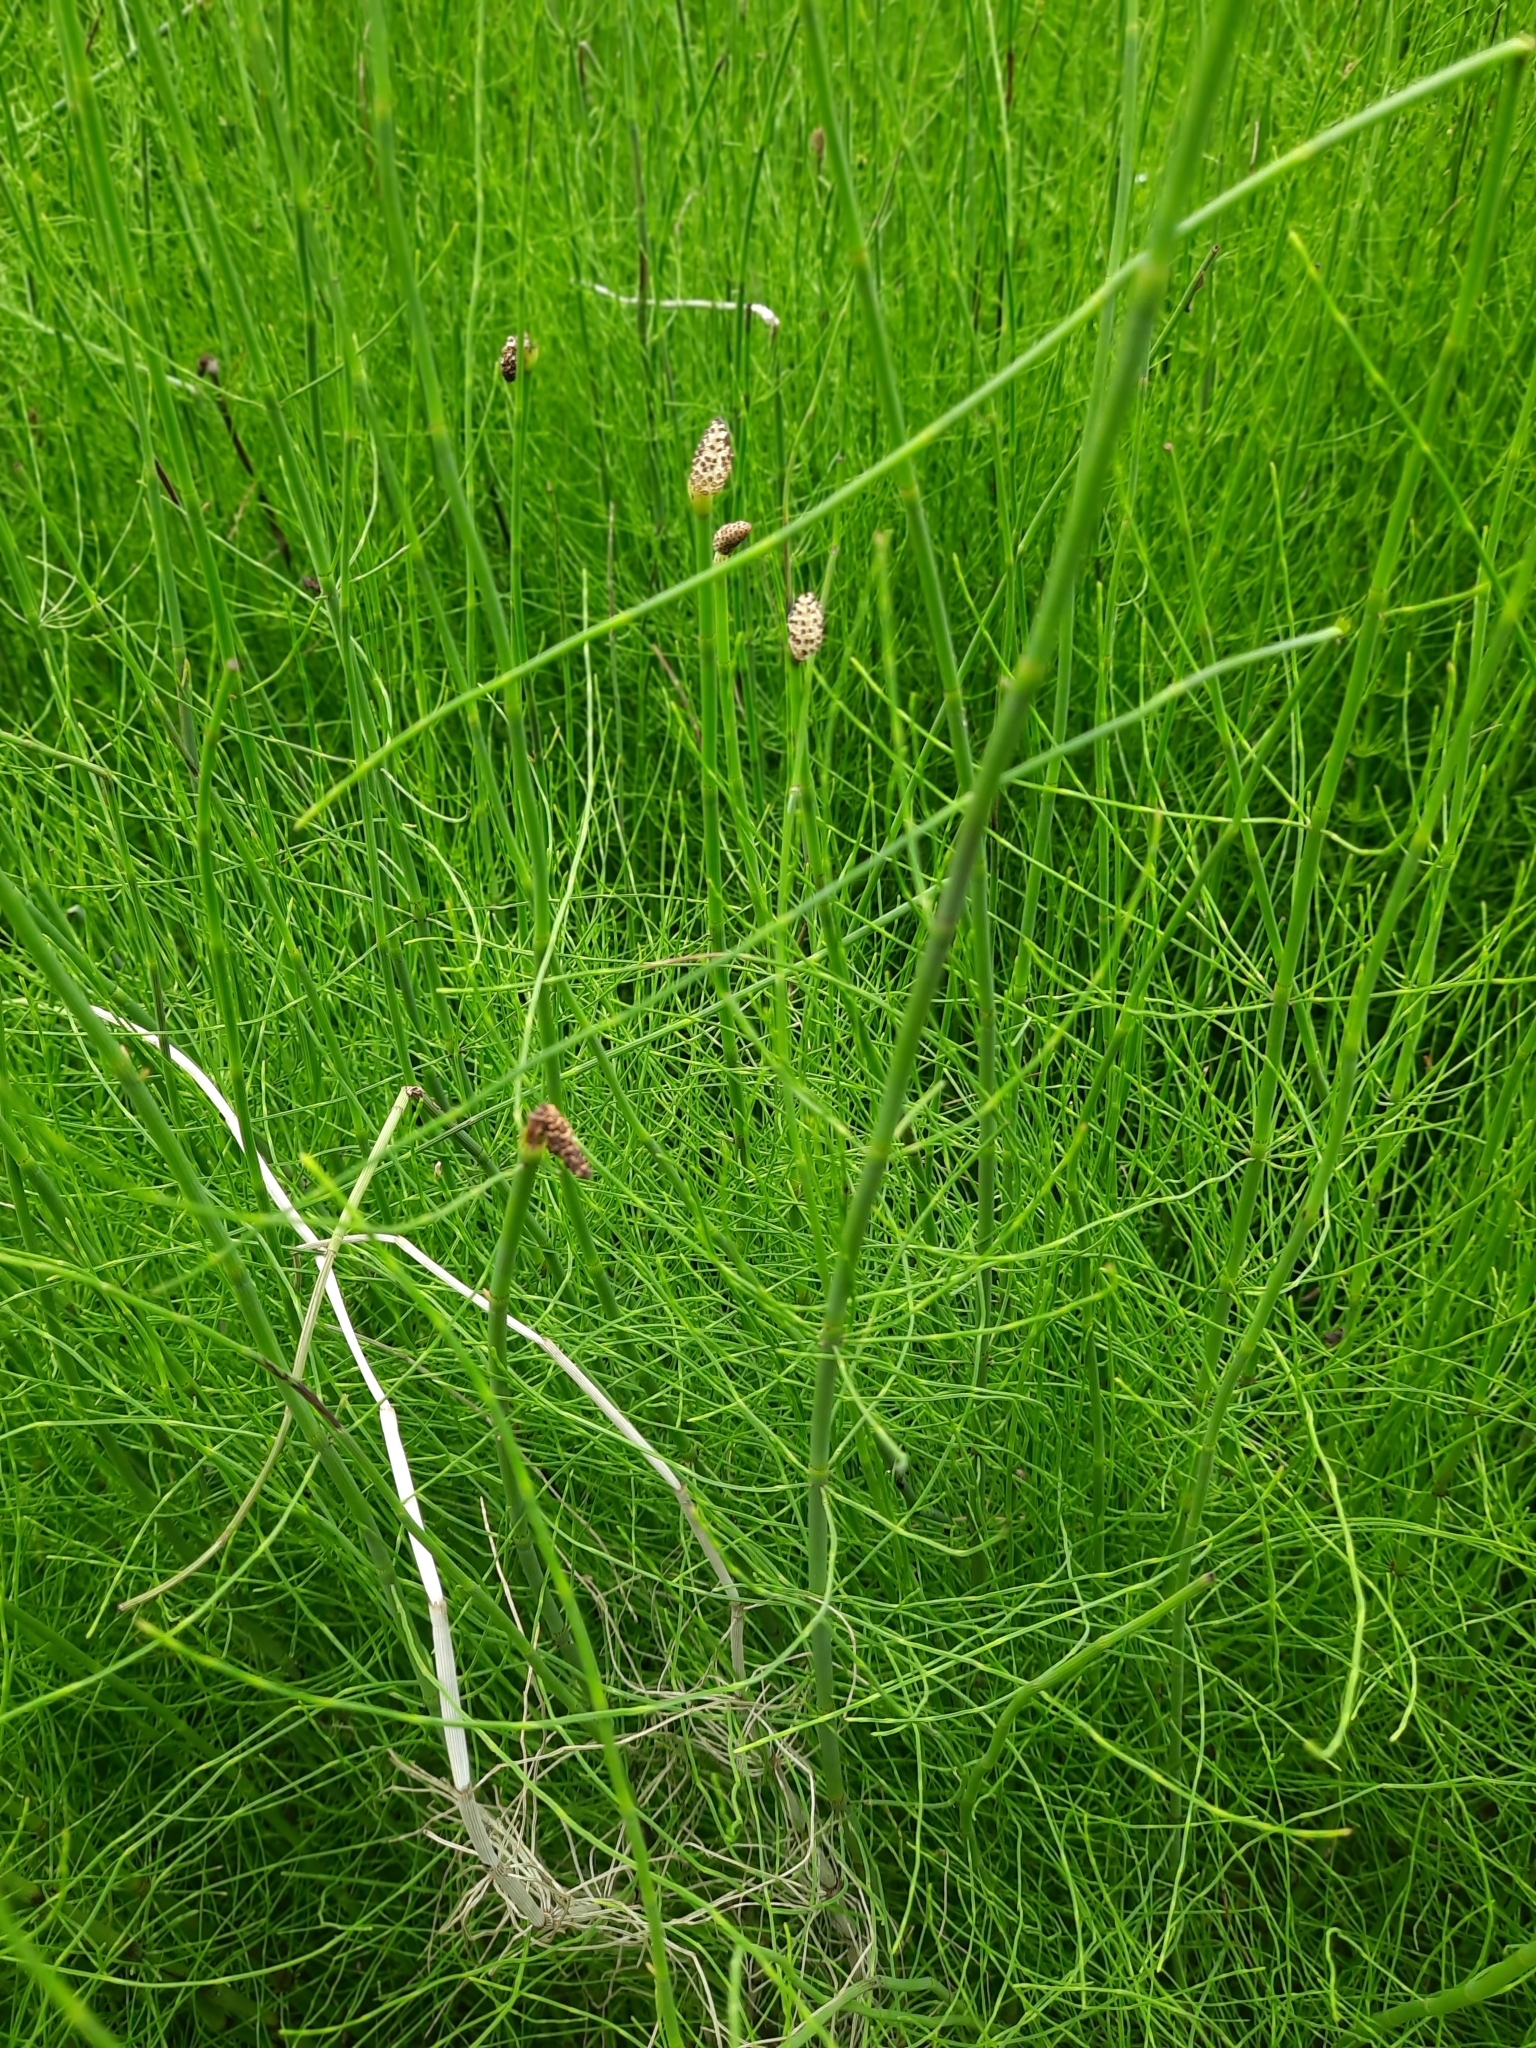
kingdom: Plantae
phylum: Tracheophyta
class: Polypodiopsida
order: Equisetales
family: Equisetaceae
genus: Equisetum
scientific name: Equisetum fluviatile
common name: Water horsetail
